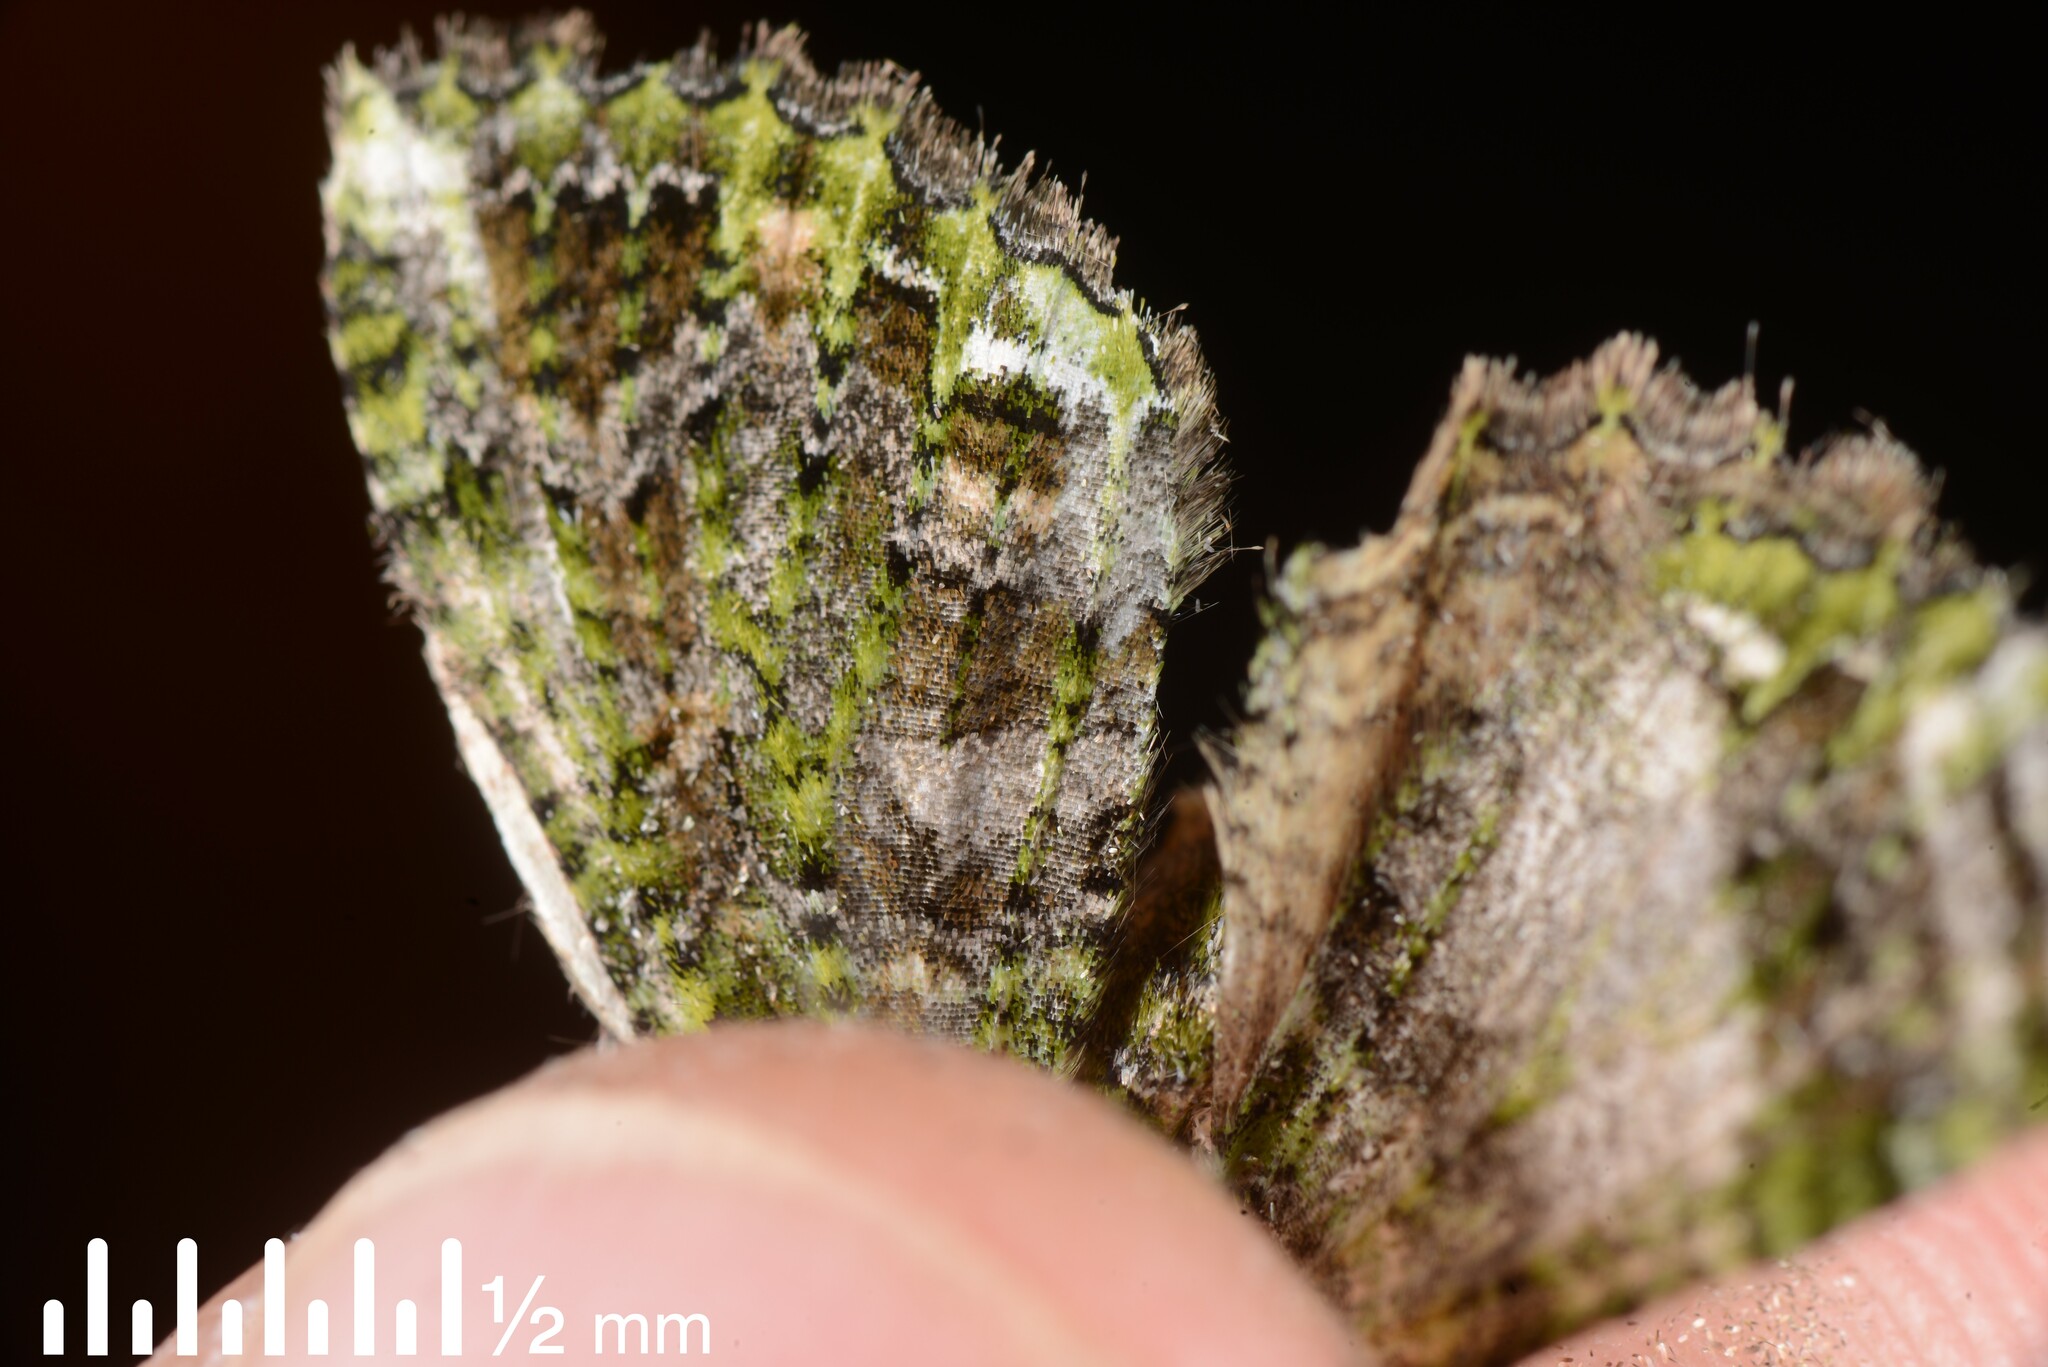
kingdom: Animalia
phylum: Arthropoda
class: Insecta
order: Lepidoptera
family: Geometridae
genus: Austrocidaria
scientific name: Austrocidaria similata
